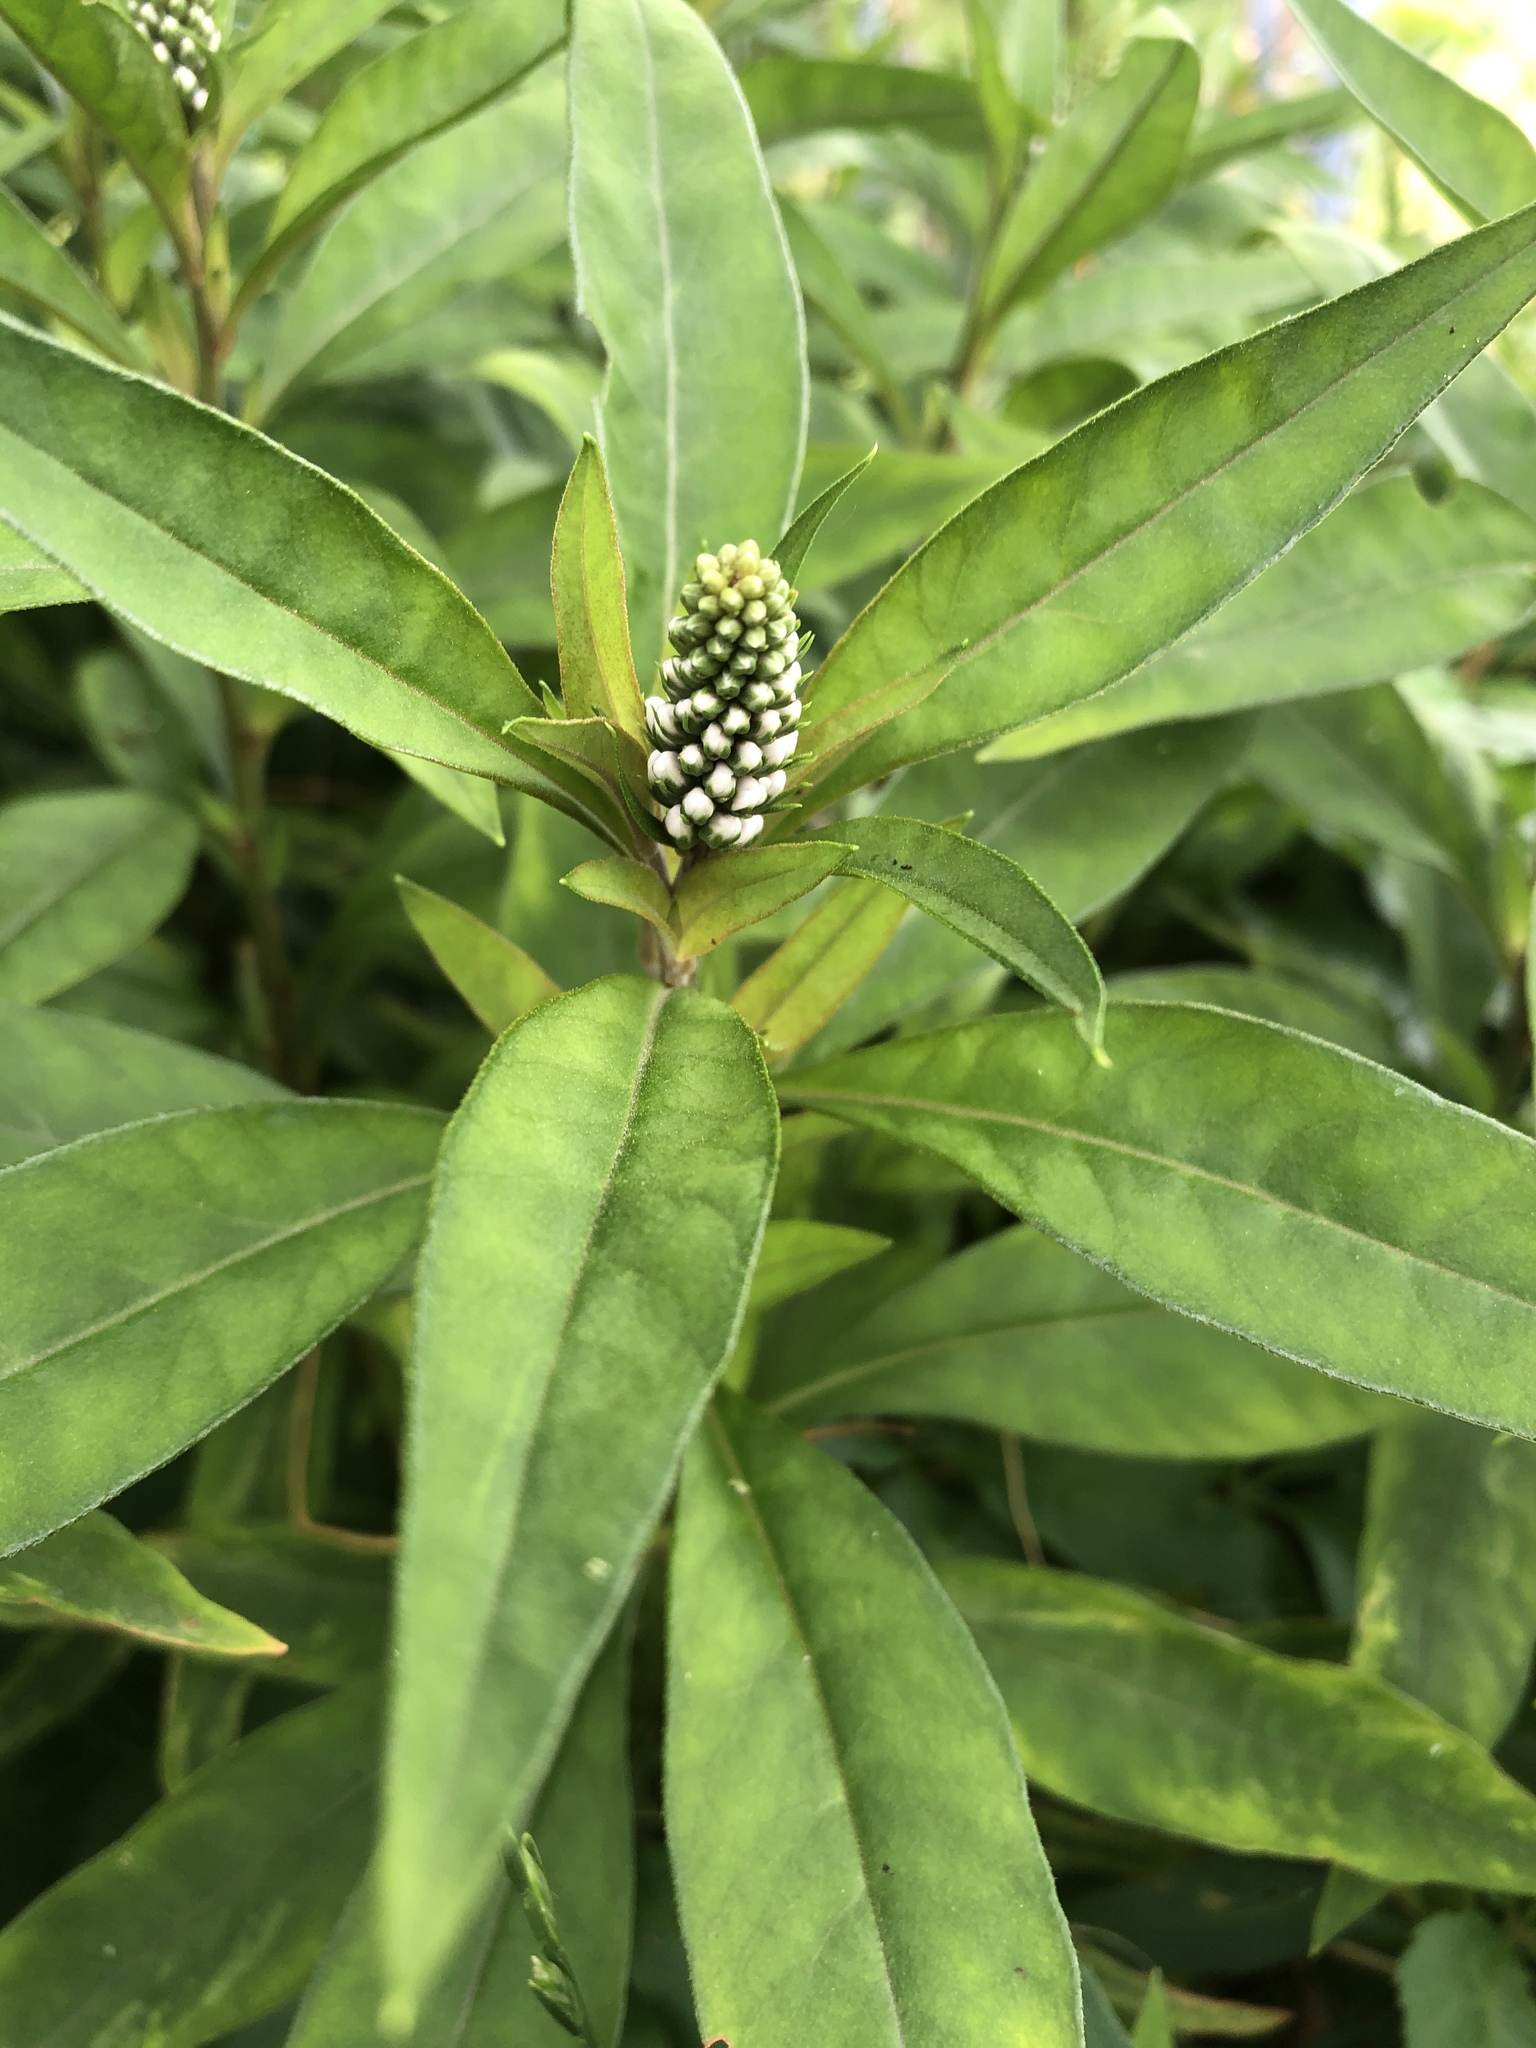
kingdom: Plantae
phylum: Tracheophyta
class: Magnoliopsida
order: Ericales
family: Primulaceae
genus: Lysimachia
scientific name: Lysimachia clethroides
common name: Gooseneck loosestrife
